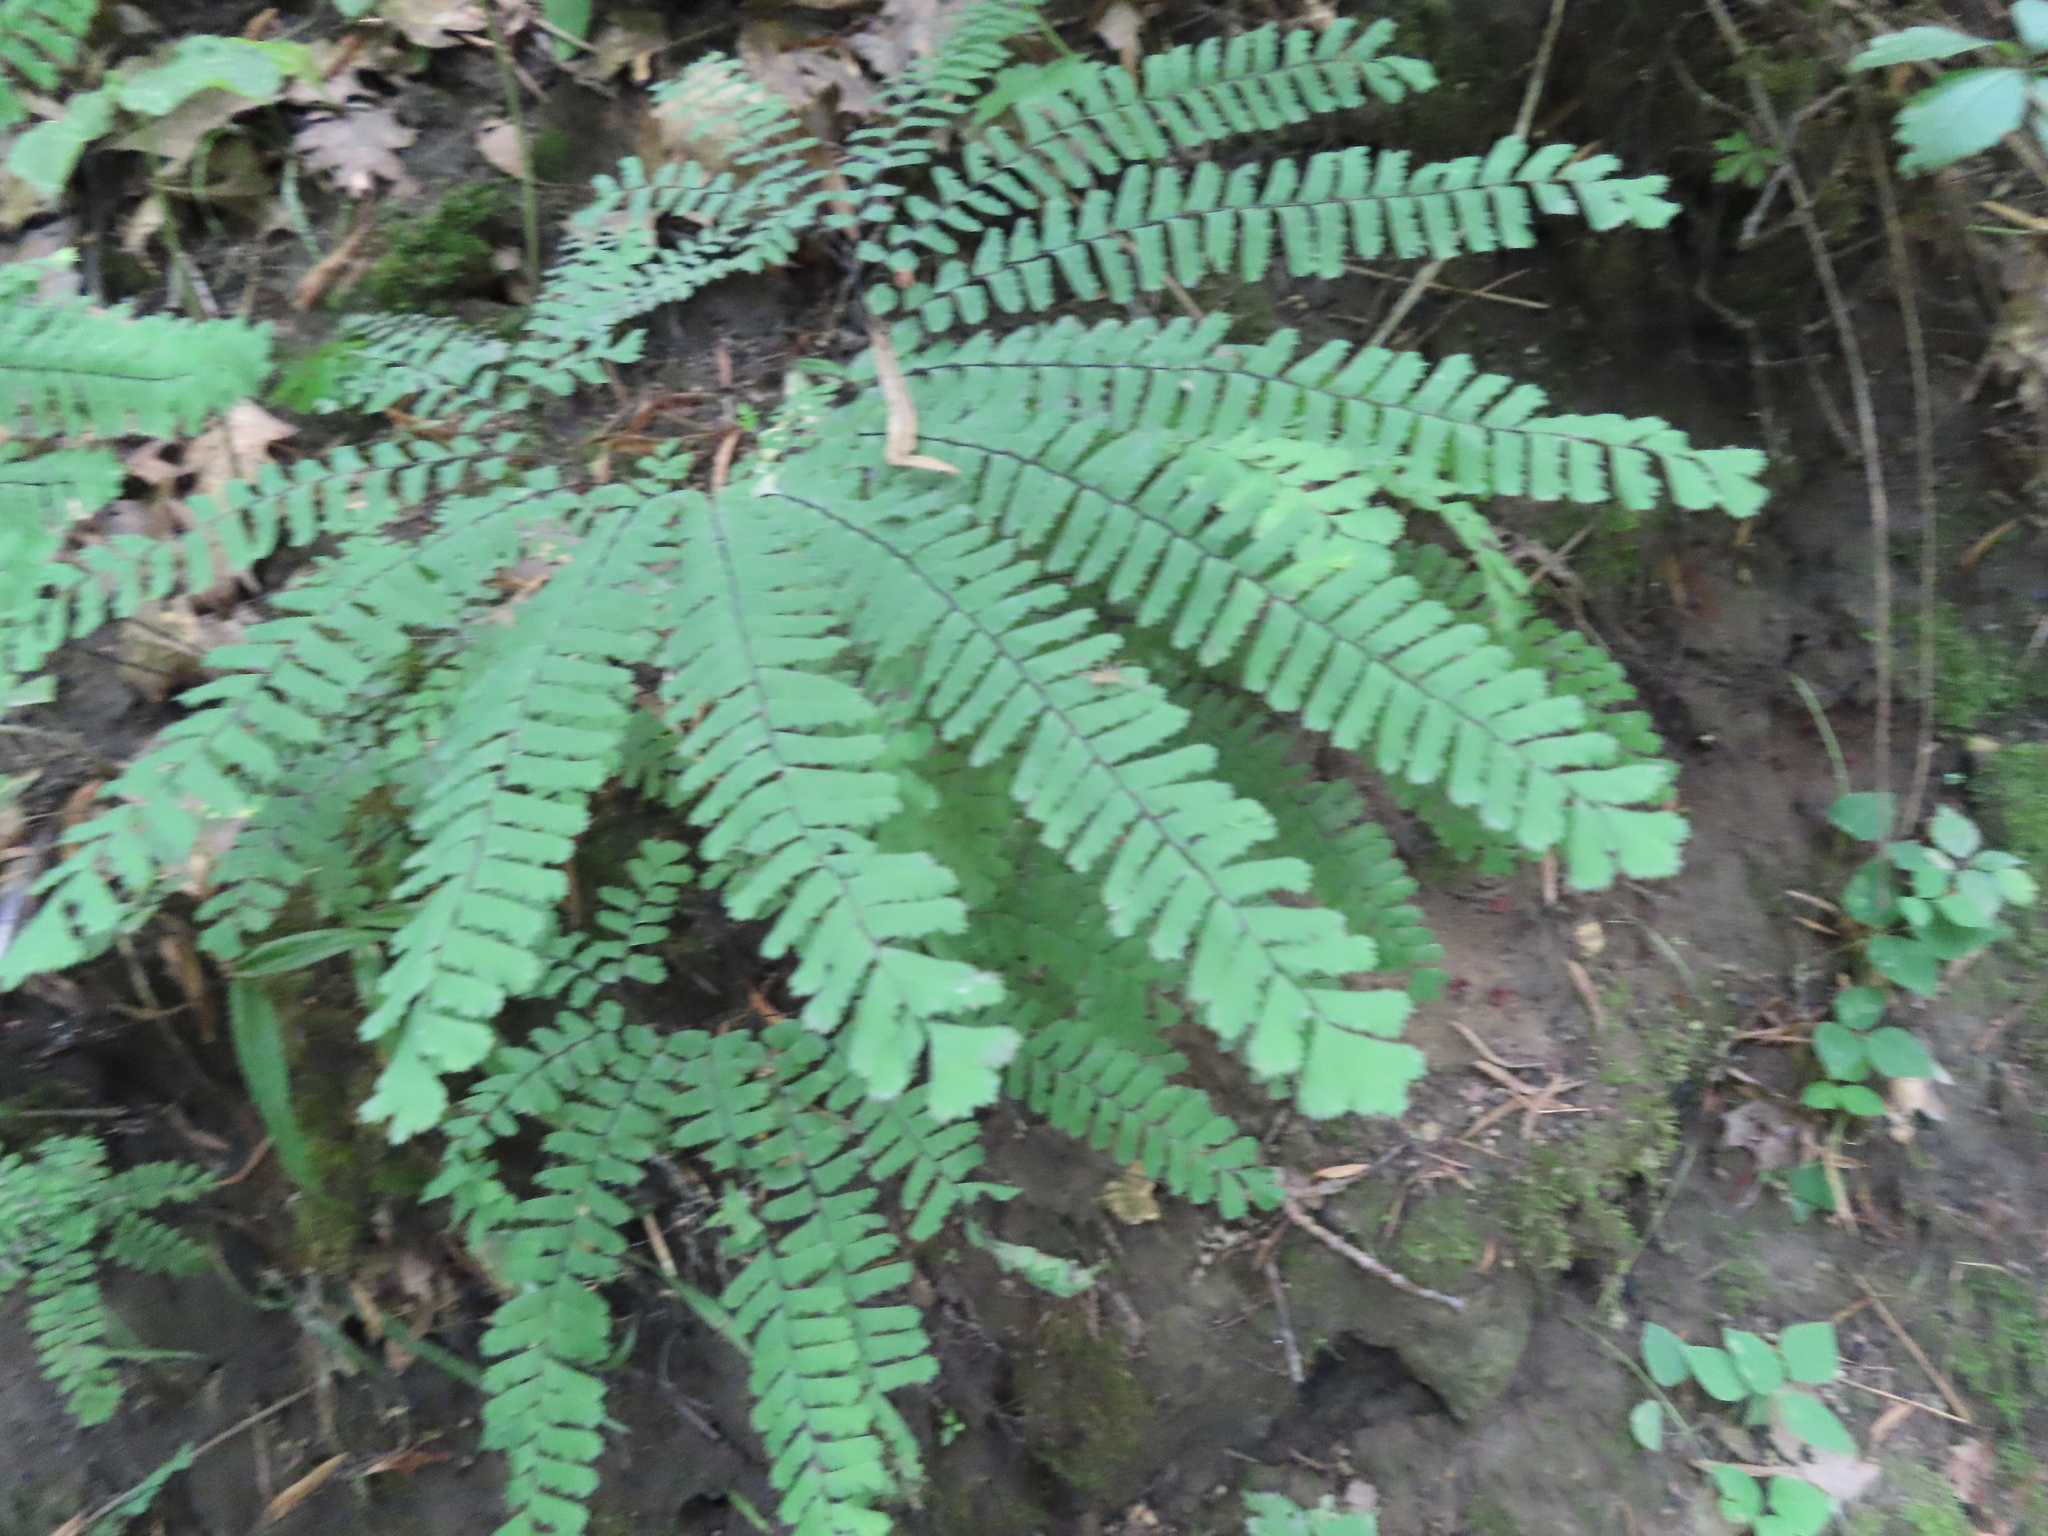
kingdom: Plantae
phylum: Tracheophyta
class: Polypodiopsida
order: Polypodiales
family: Pteridaceae
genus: Adiantum
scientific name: Adiantum pedatum
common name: Five-finger fern
